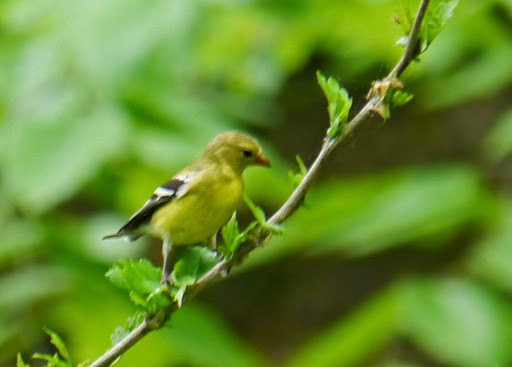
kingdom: Animalia
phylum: Chordata
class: Aves
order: Passeriformes
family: Fringillidae
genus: Spinus
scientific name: Spinus tristis
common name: American goldfinch
